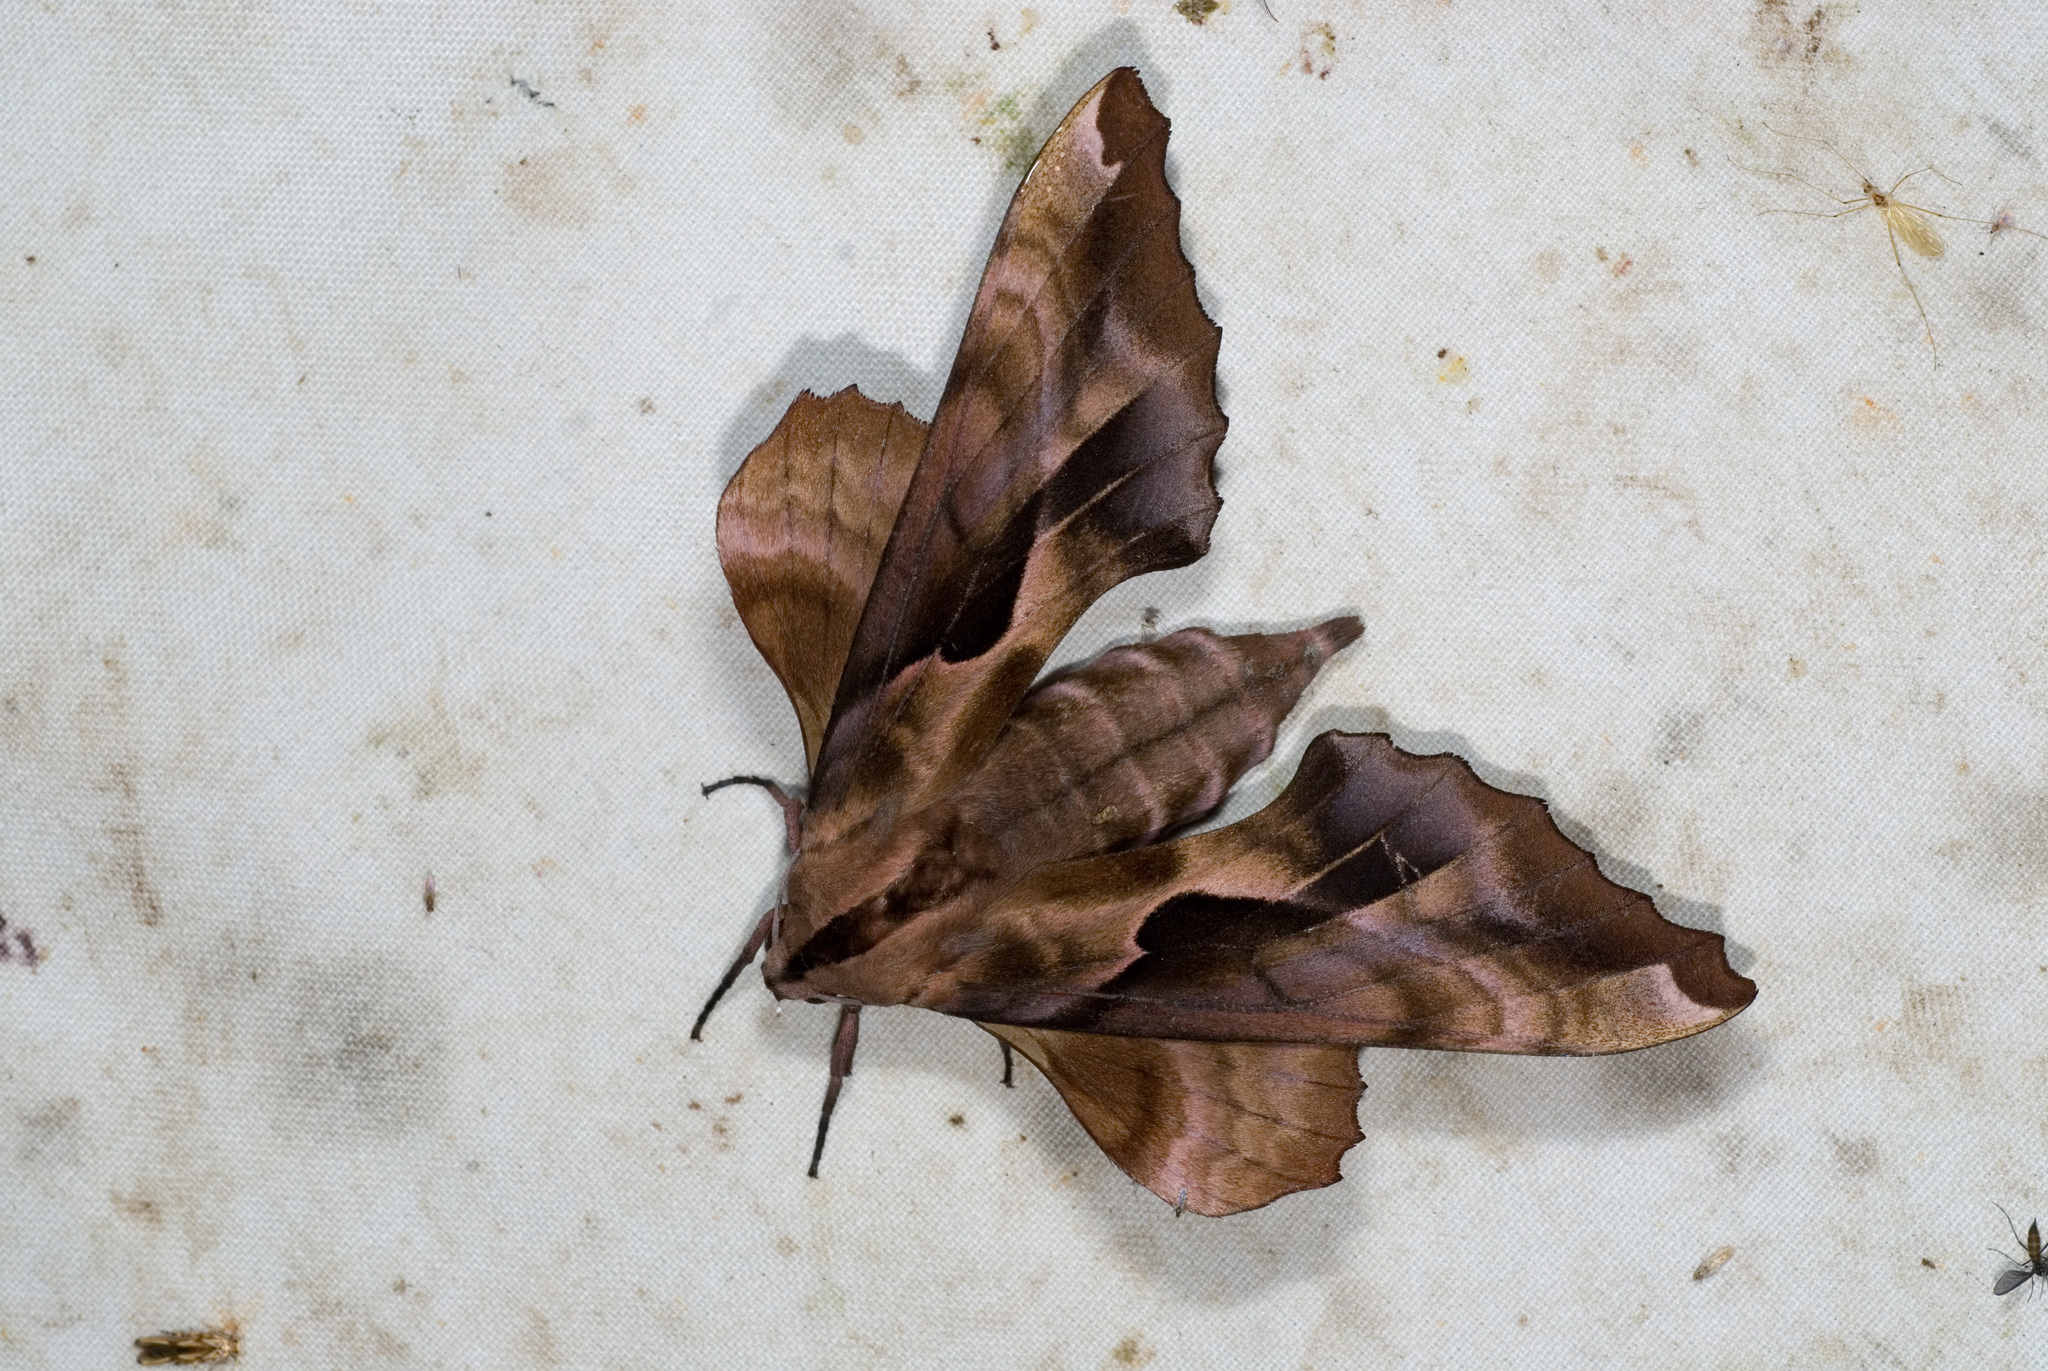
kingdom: Animalia
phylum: Arthropoda
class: Insecta
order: Lepidoptera
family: Sphingidae
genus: Phyllosphingia
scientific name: Phyllosphingia dissimilis
